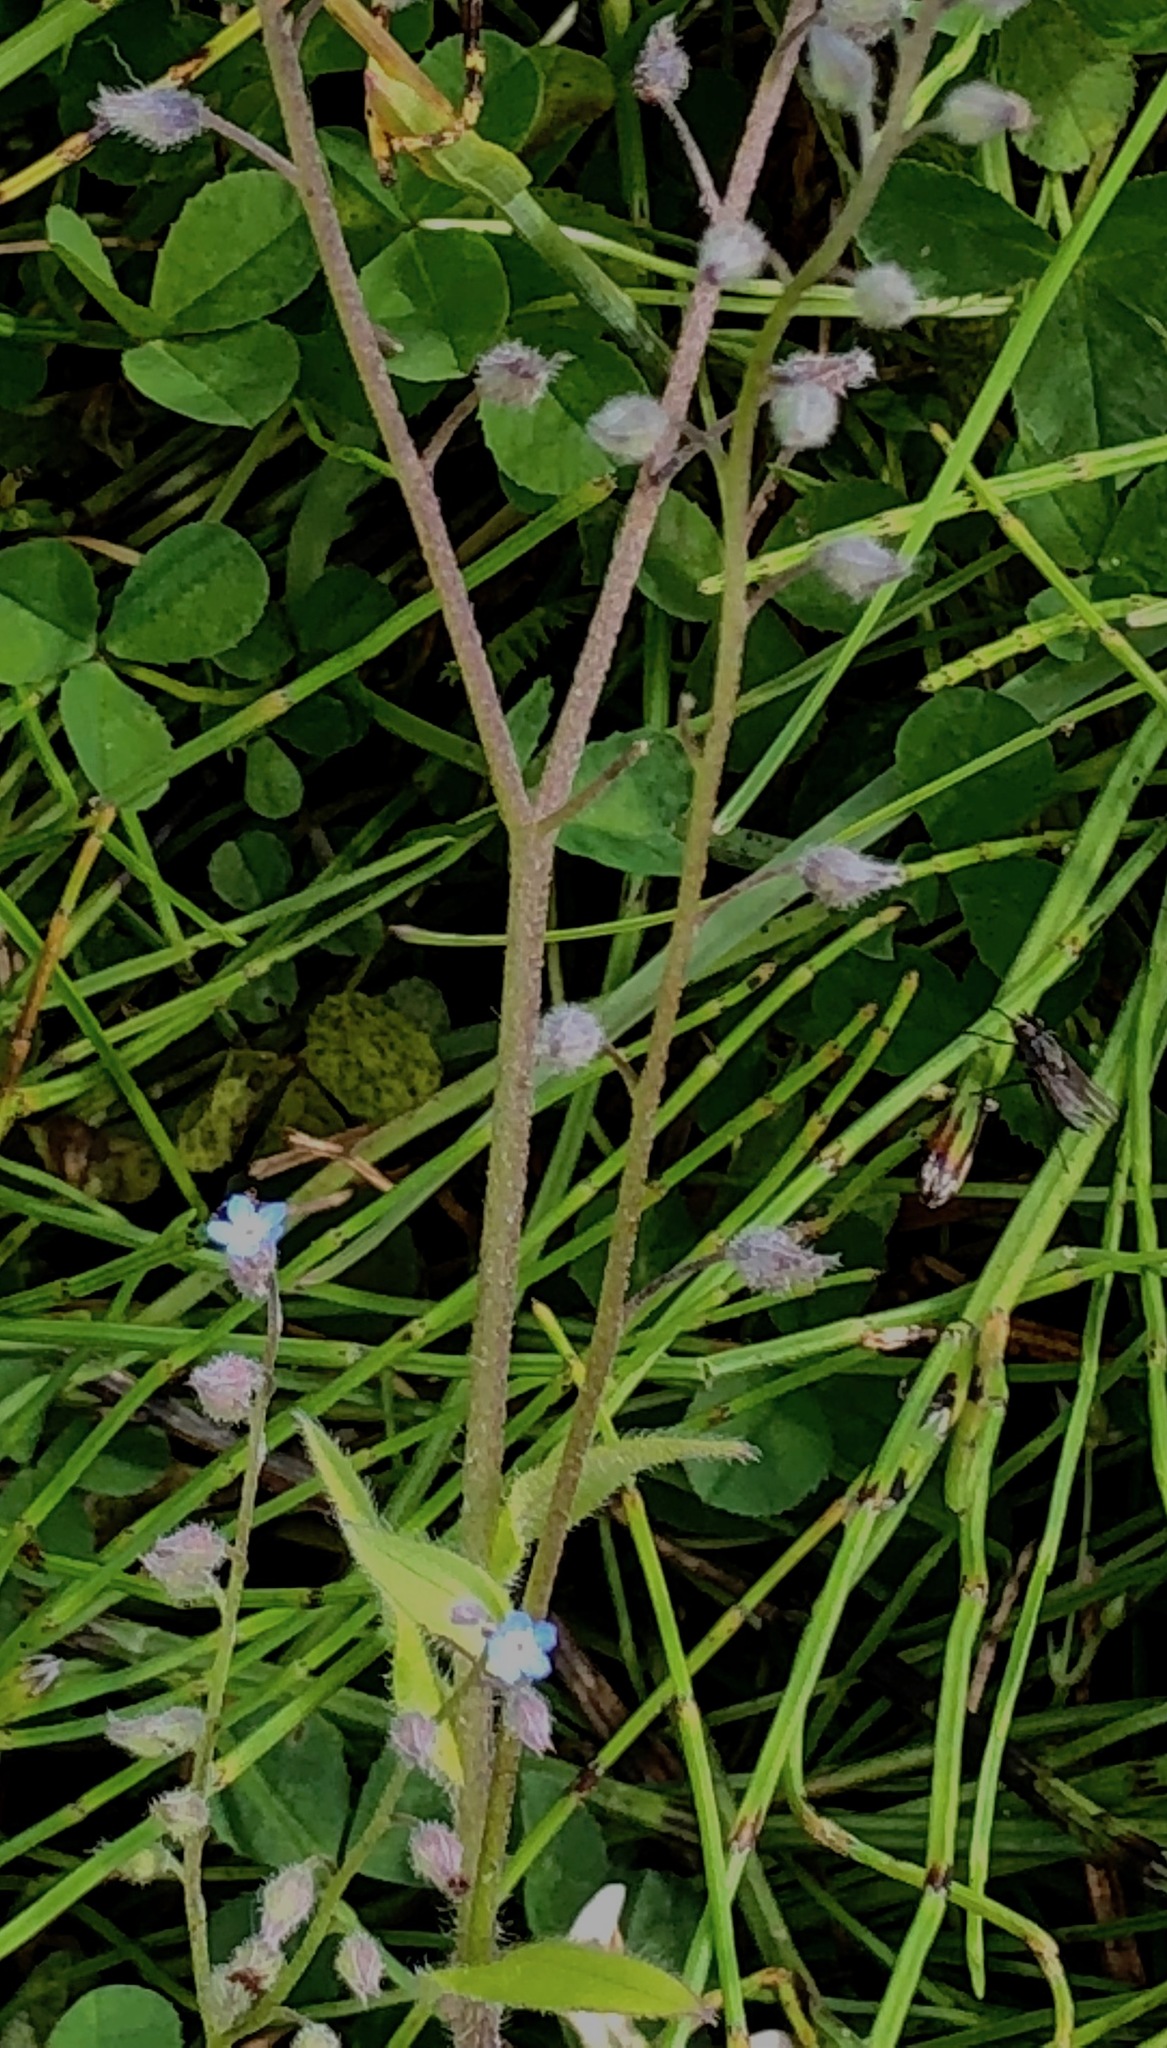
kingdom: Plantae
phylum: Tracheophyta
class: Magnoliopsida
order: Boraginales
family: Boraginaceae
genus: Myosotis
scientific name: Myosotis arvensis
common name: Field forget-me-not
